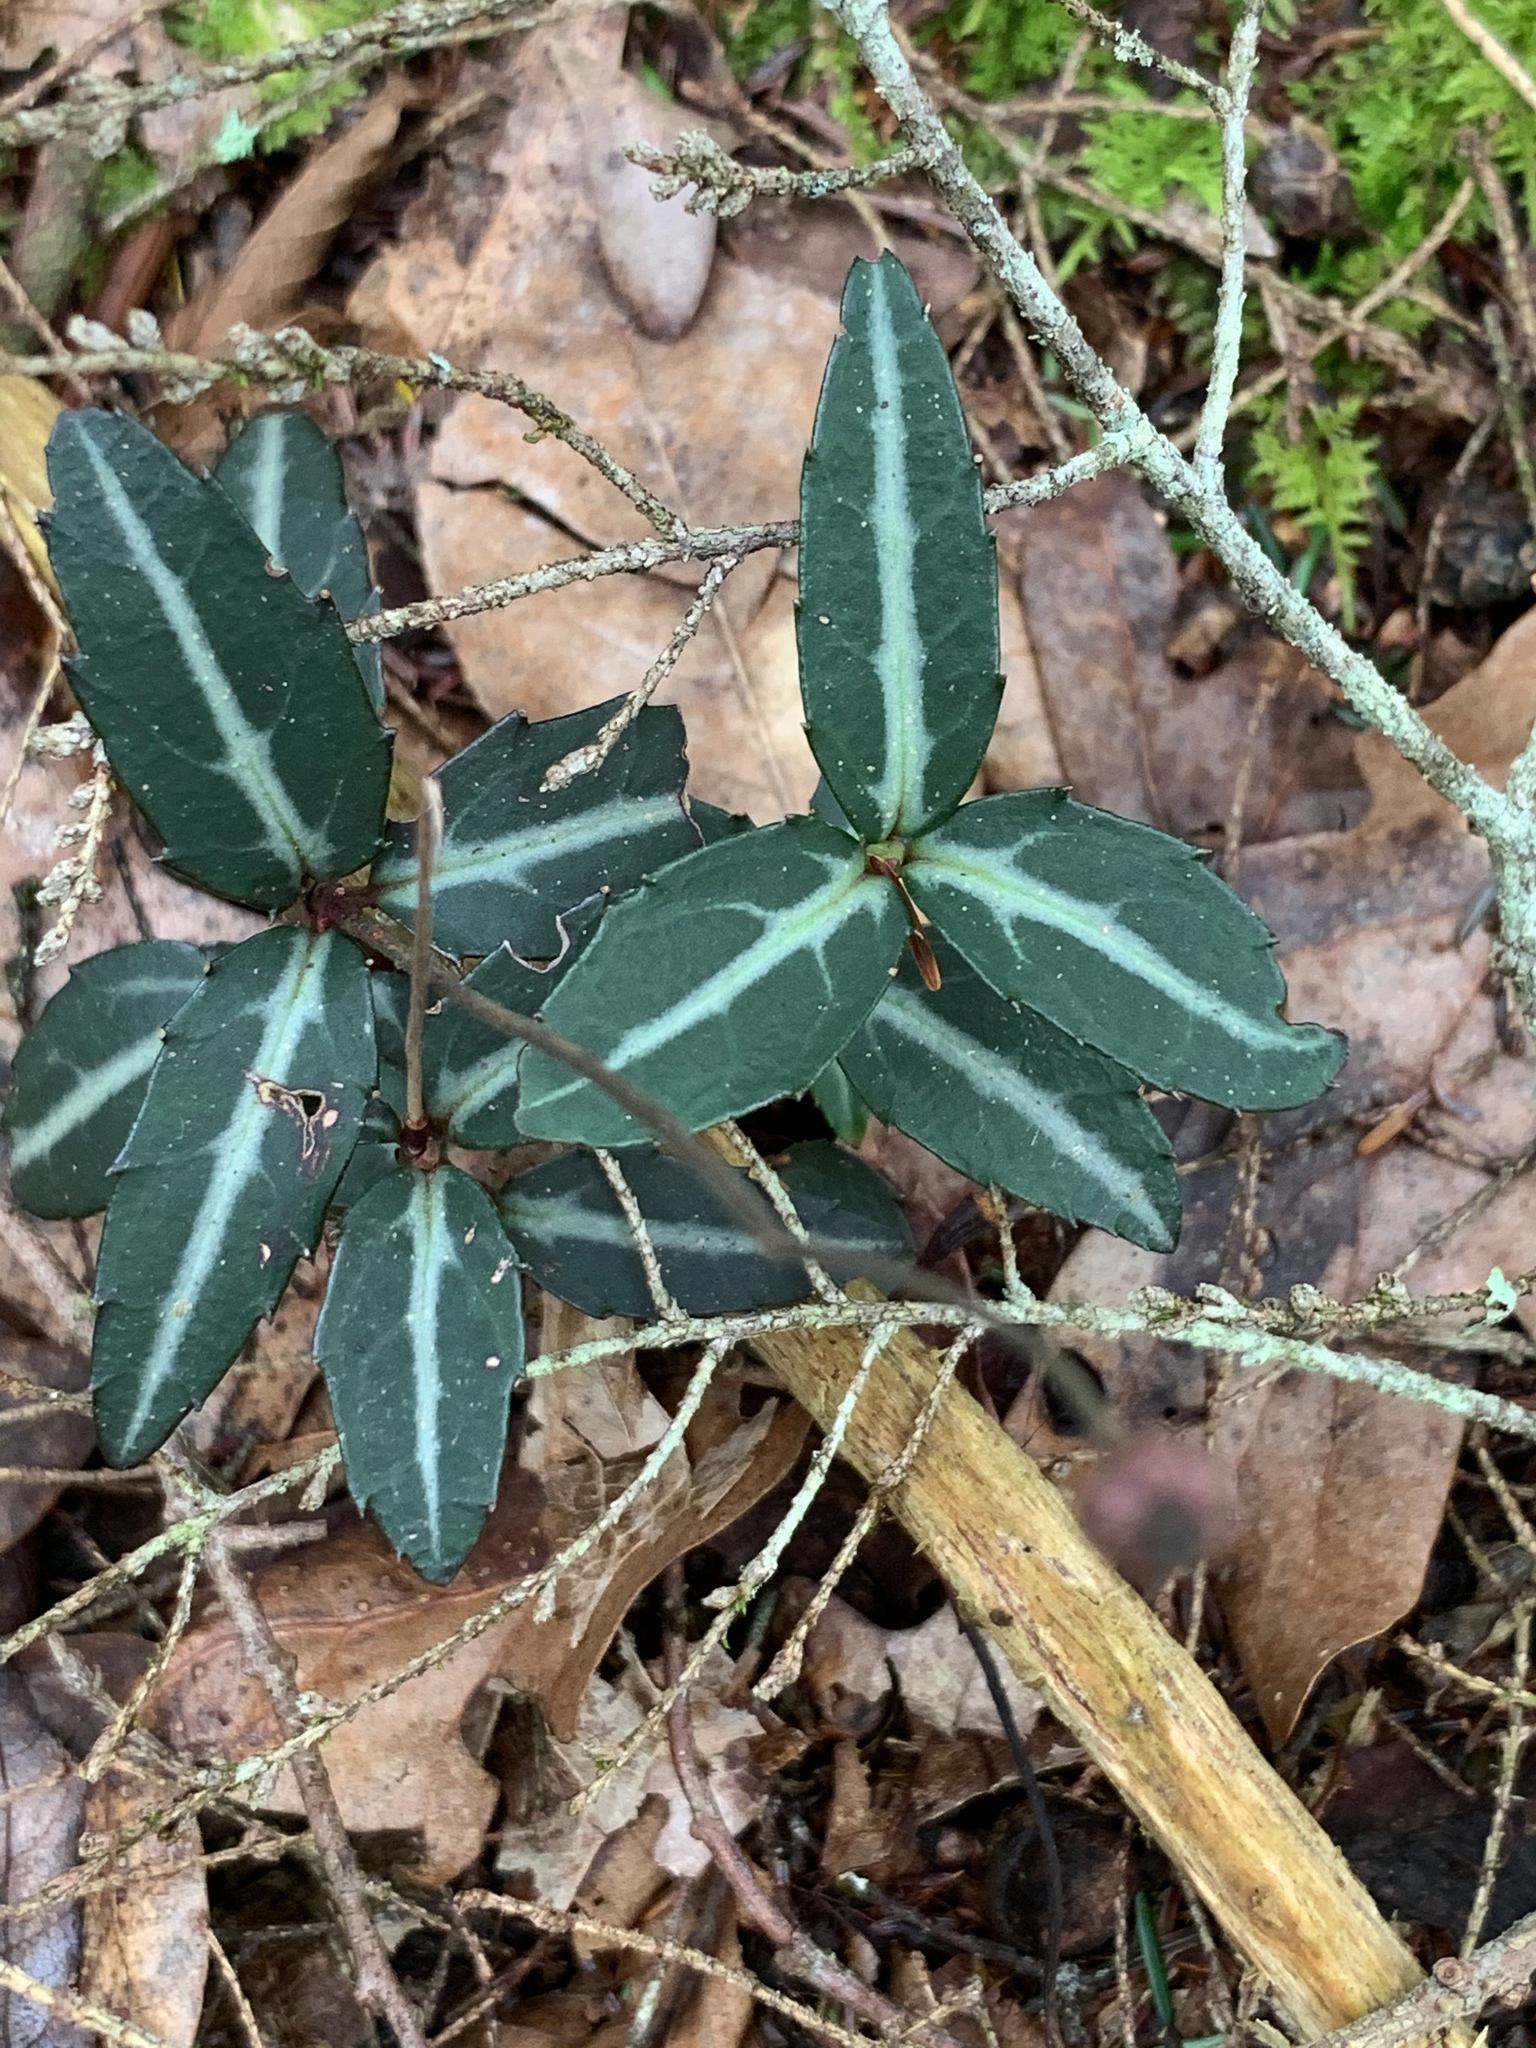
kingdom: Plantae
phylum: Tracheophyta
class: Magnoliopsida
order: Ericales
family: Ericaceae
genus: Chimaphila
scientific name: Chimaphila maculata
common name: Spotted pipsissewa
